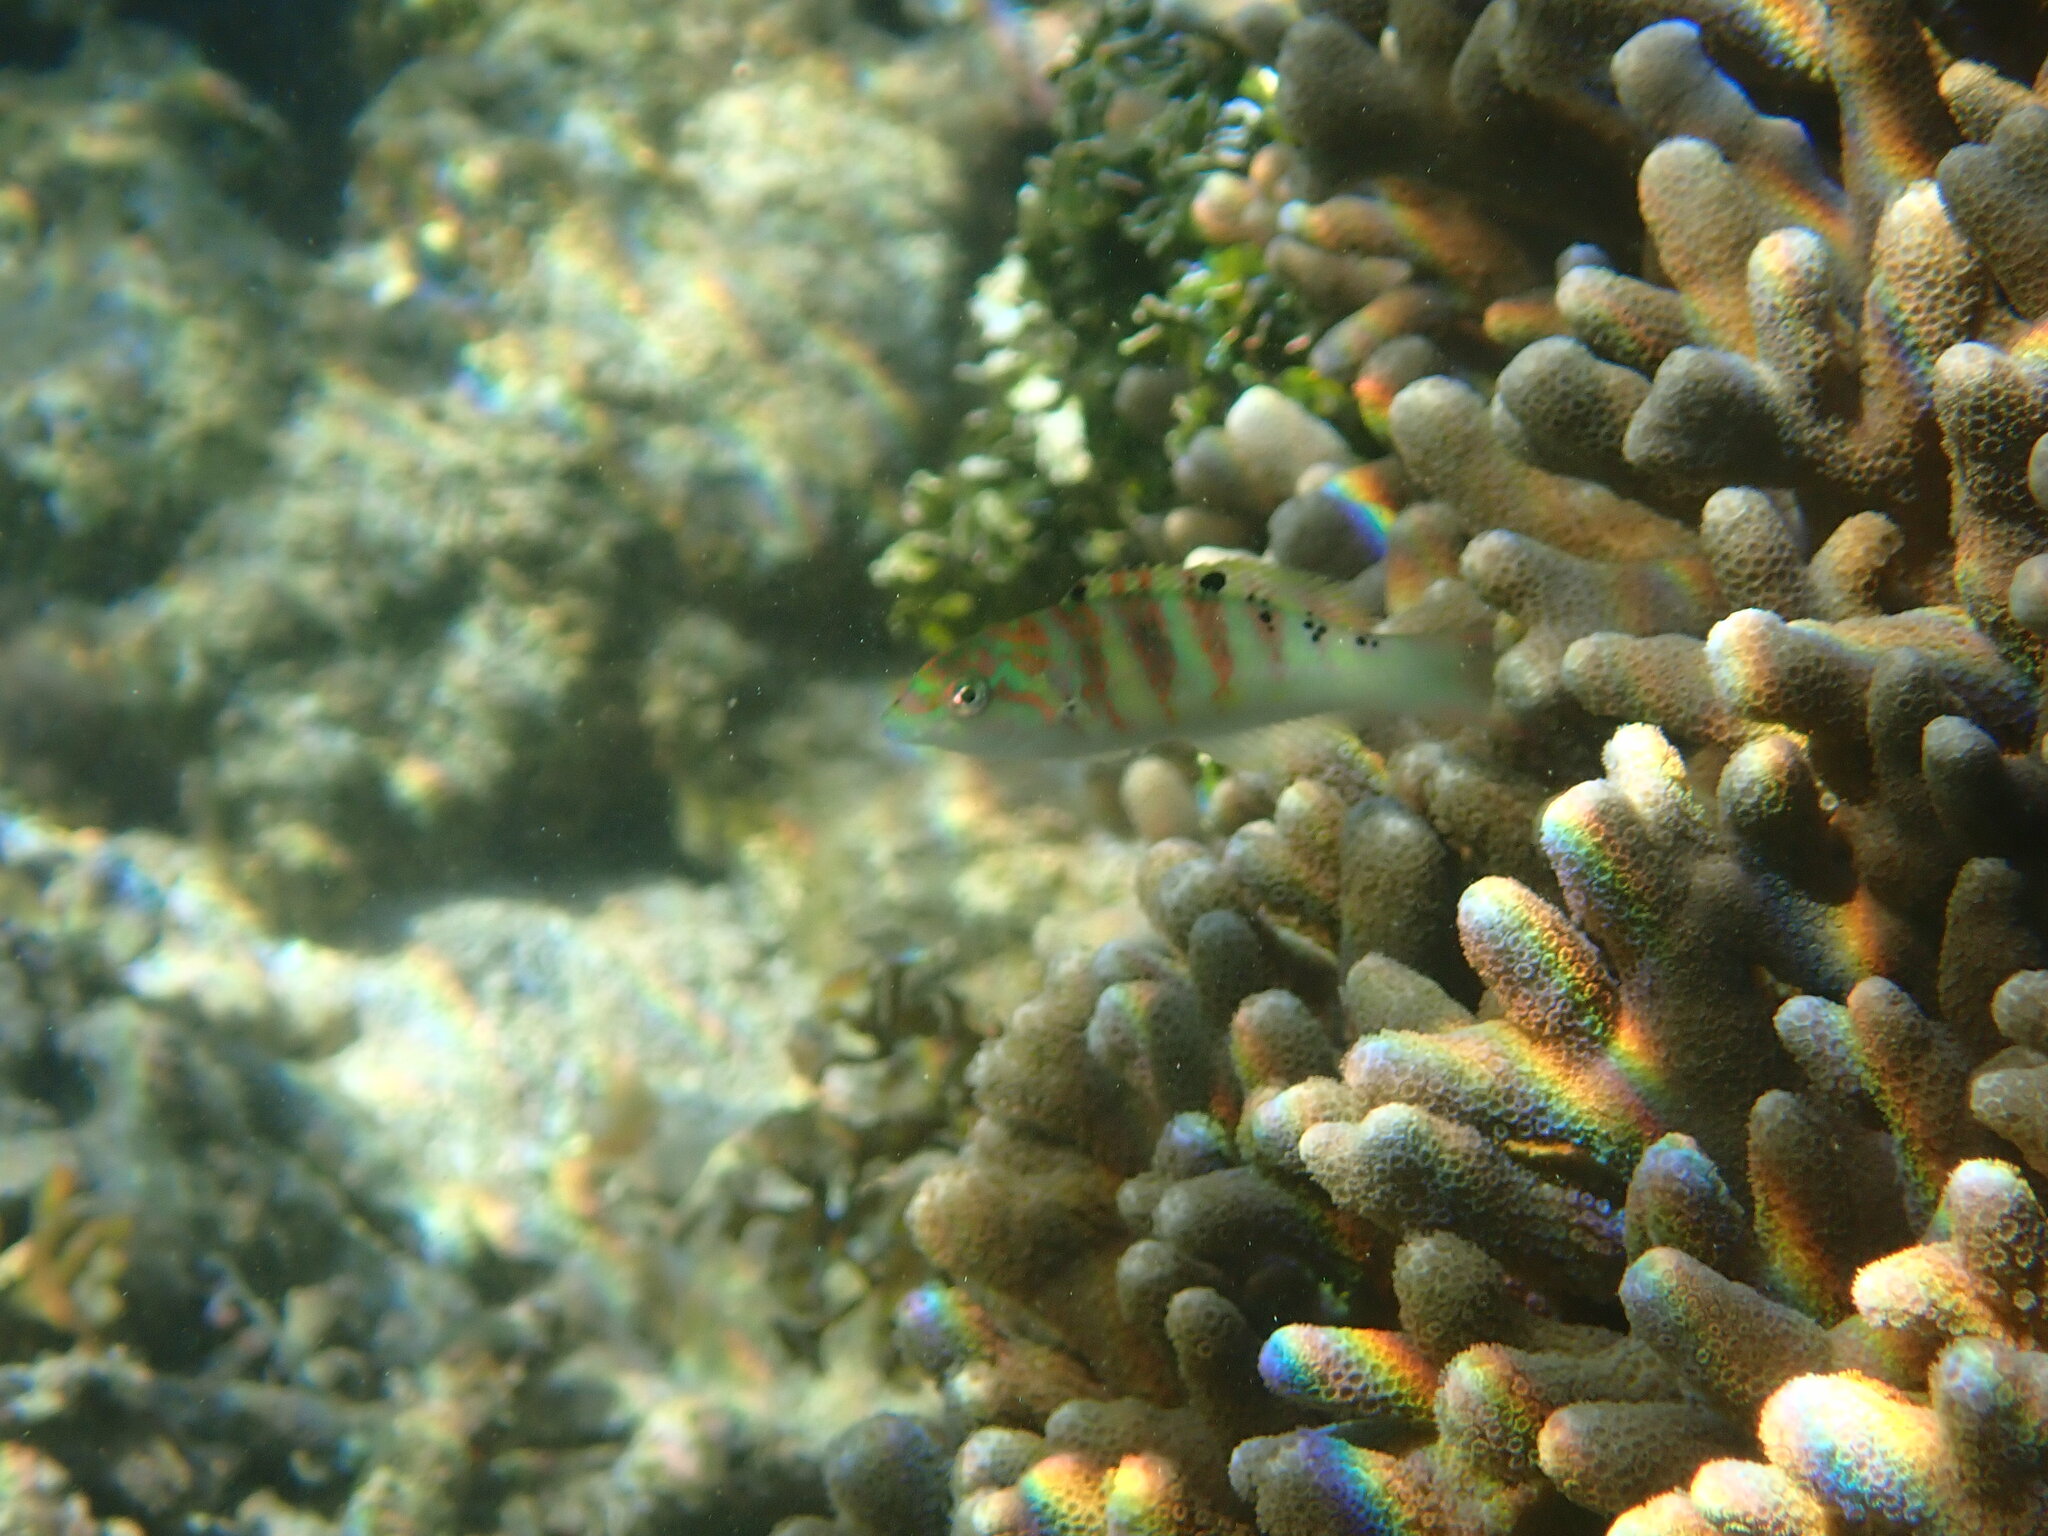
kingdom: Animalia
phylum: Chordata
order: Perciformes
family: Labridae
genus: Thalassoma
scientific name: Thalassoma hardwicke
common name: Sixbar wrasse
